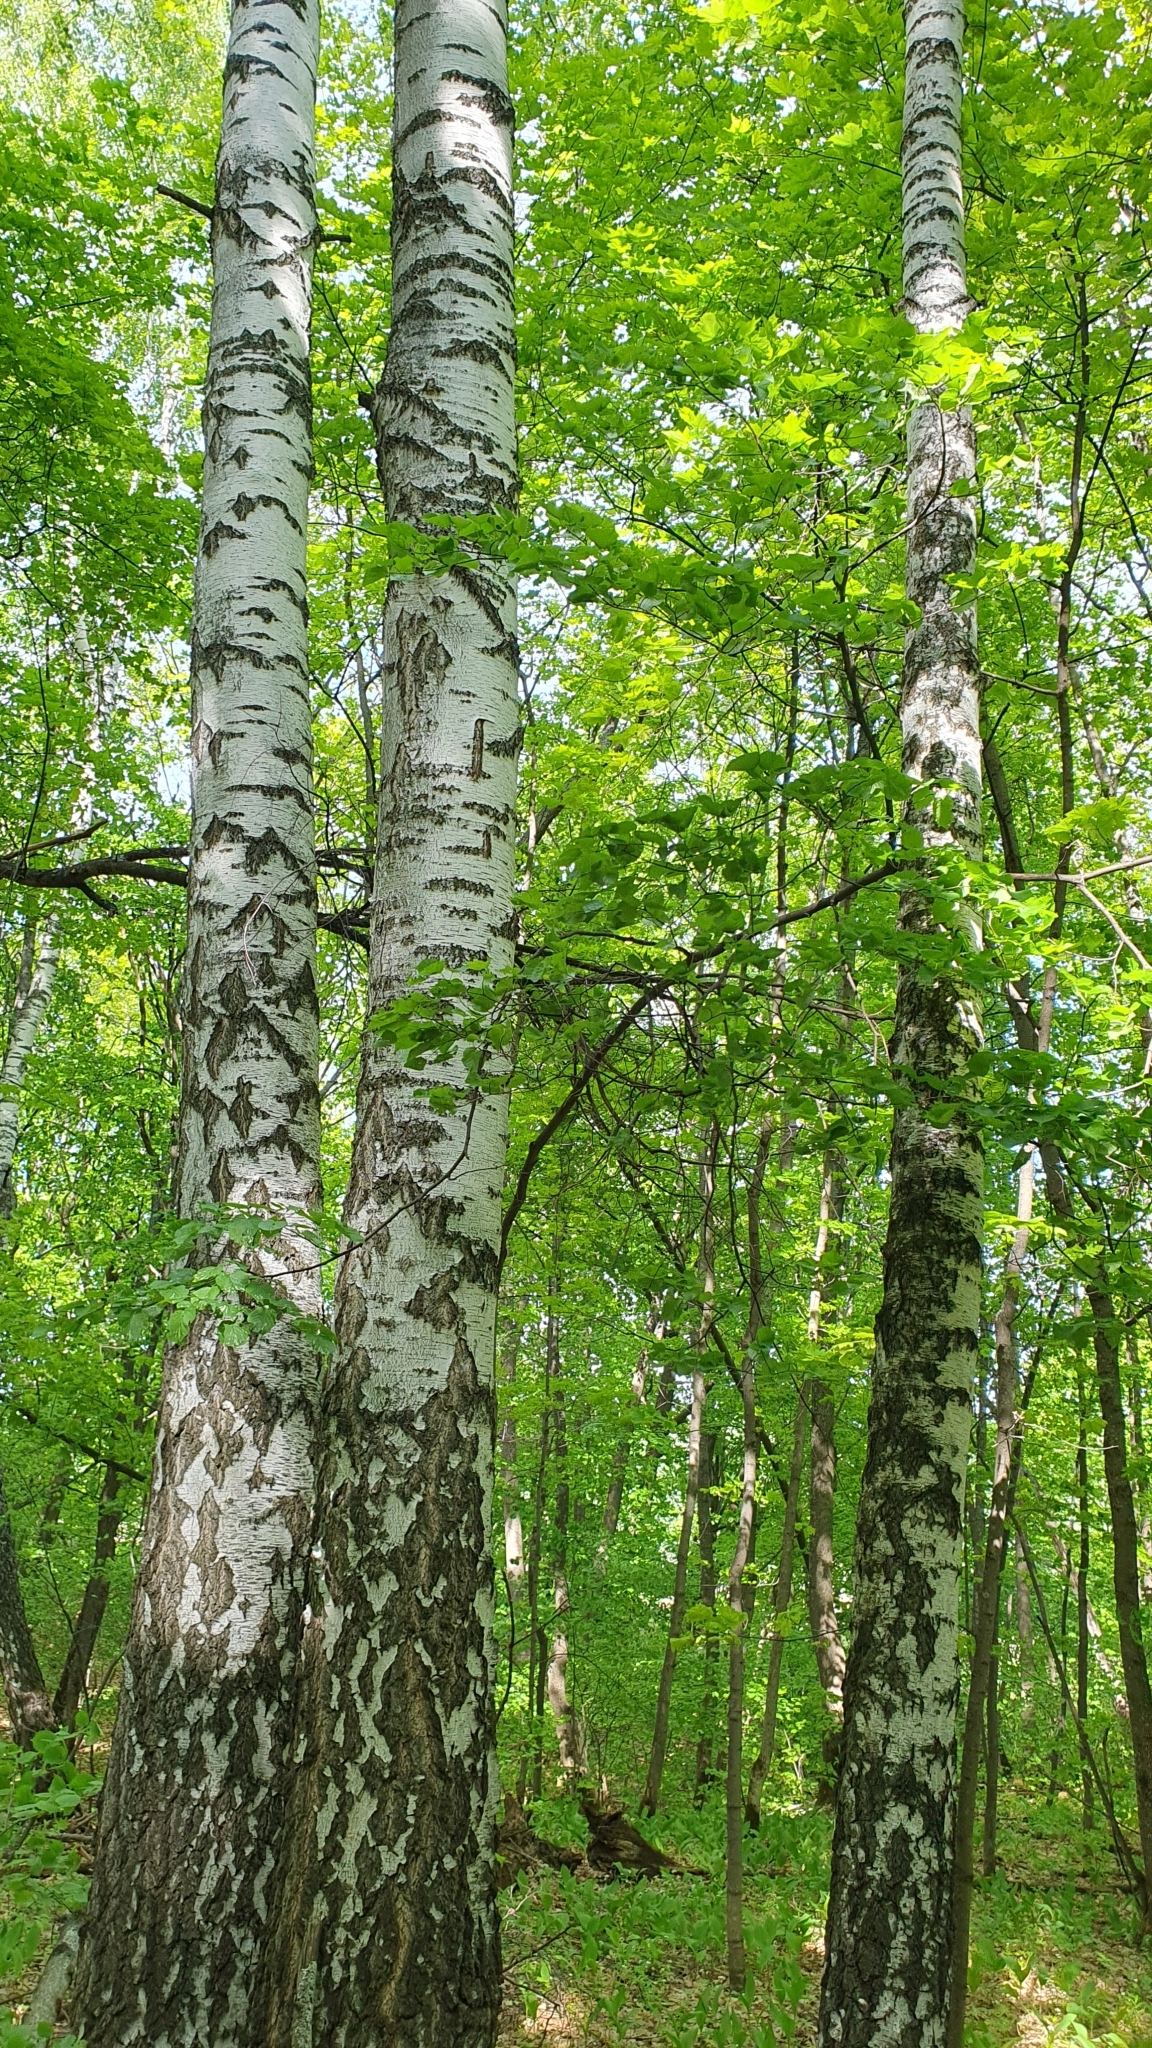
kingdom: Plantae
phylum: Tracheophyta
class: Magnoliopsida
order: Fagales
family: Betulaceae
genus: Betula
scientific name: Betula pendula
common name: Silver birch
